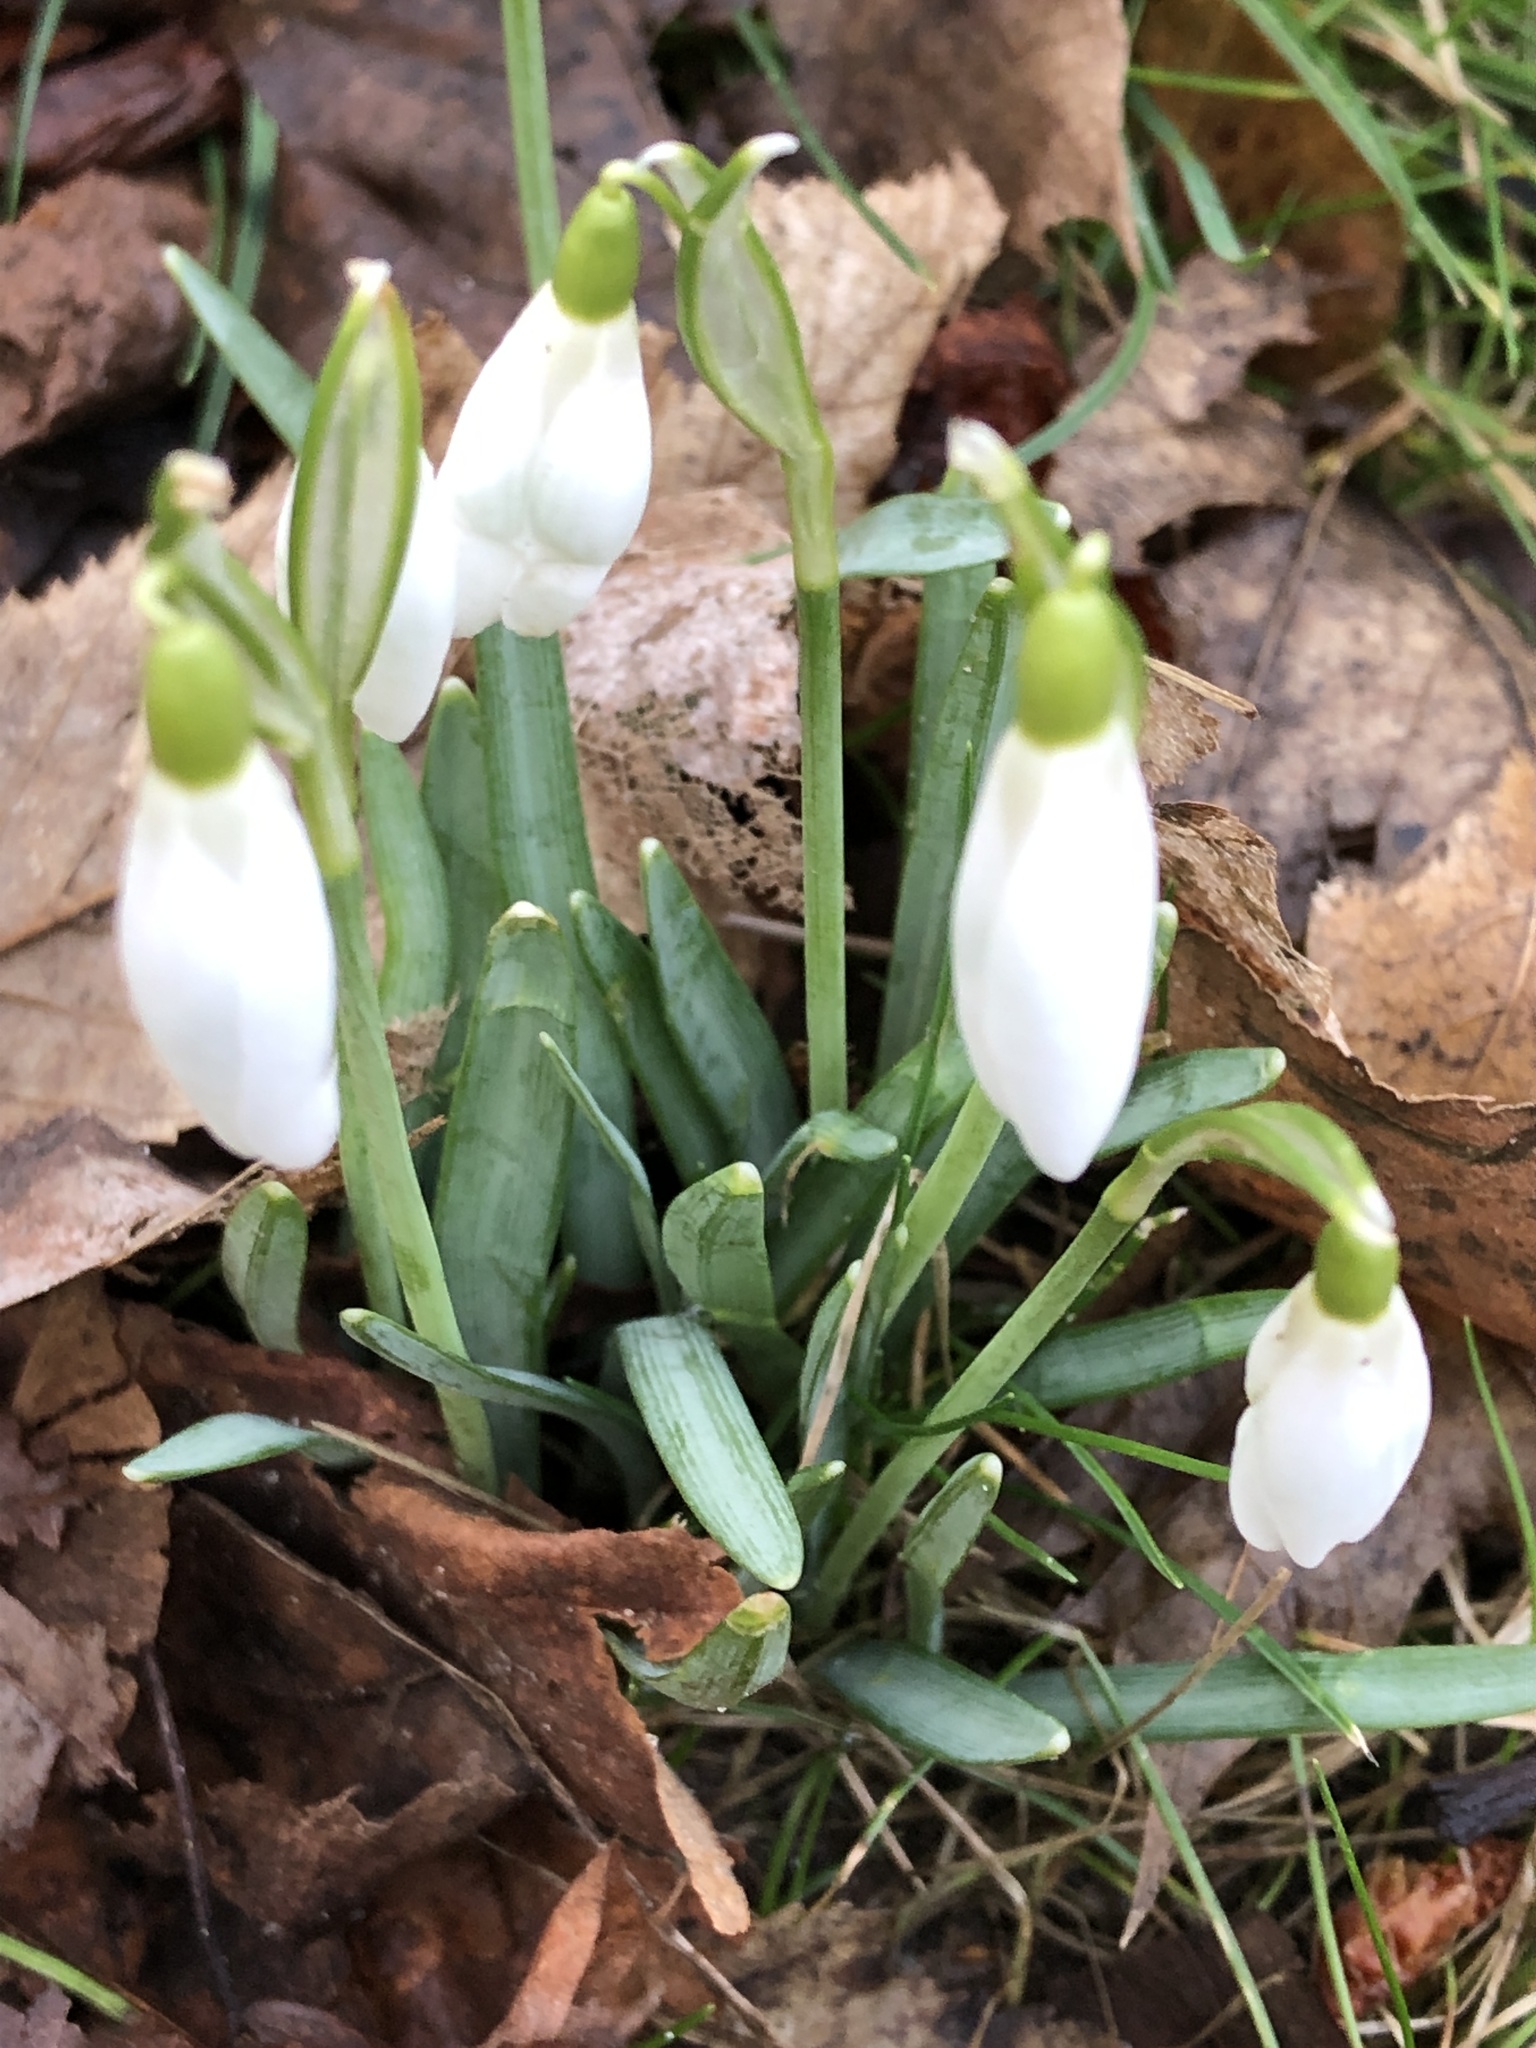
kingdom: Plantae
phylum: Tracheophyta
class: Liliopsida
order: Asparagales
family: Amaryllidaceae
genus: Galanthus
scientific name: Galanthus nivalis
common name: Snowdrop
